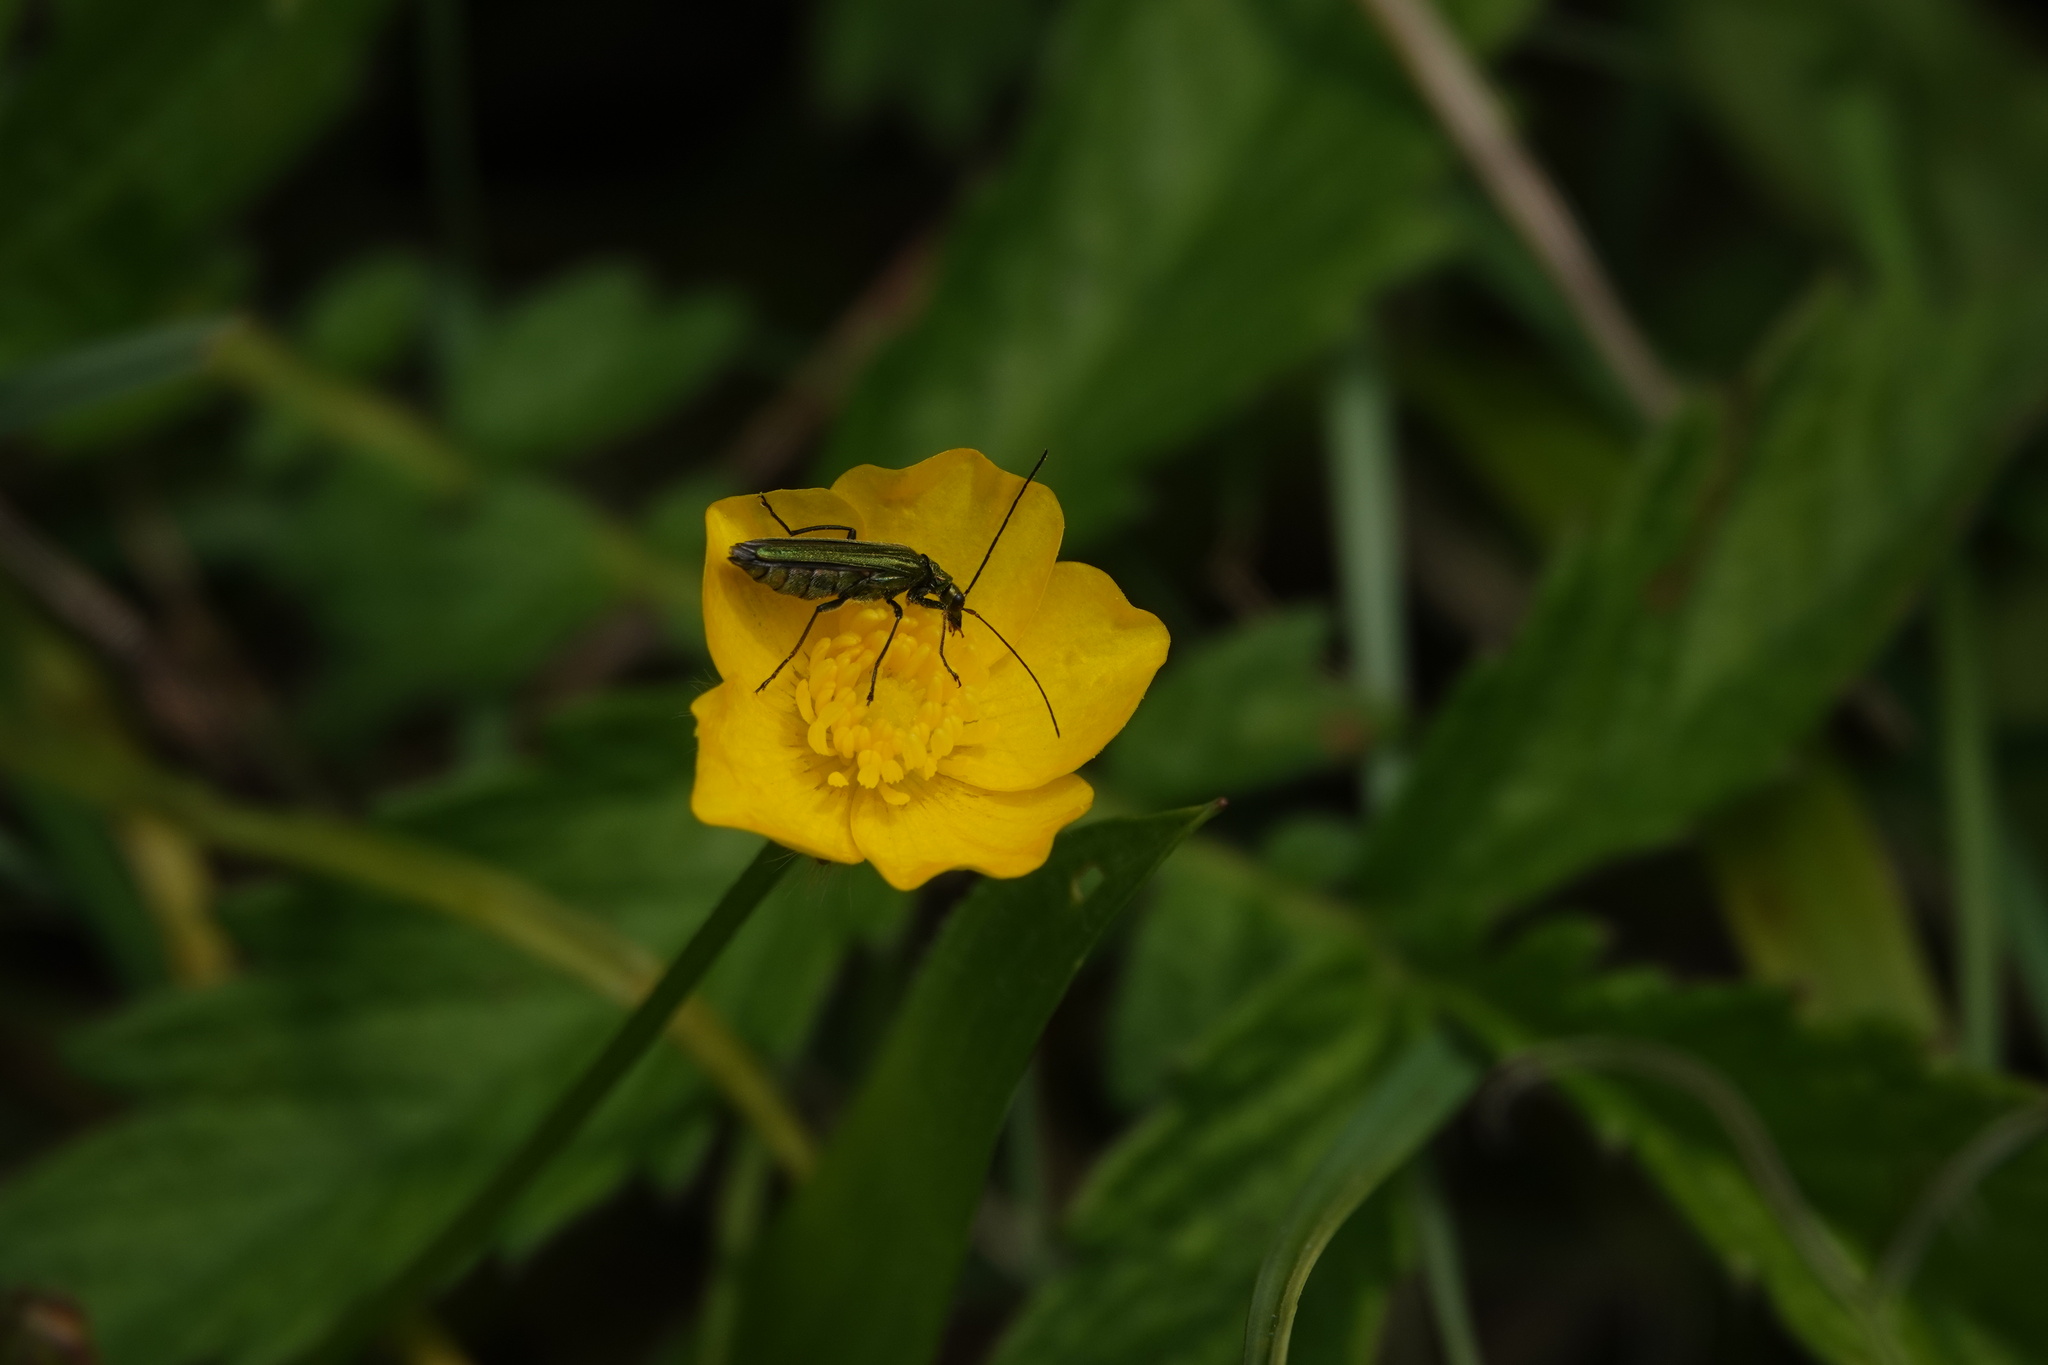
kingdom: Animalia
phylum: Arthropoda
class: Insecta
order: Coleoptera
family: Oedemeridae
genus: Oedemera
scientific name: Oedemera nobilis
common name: Swollen-thighed beetle
